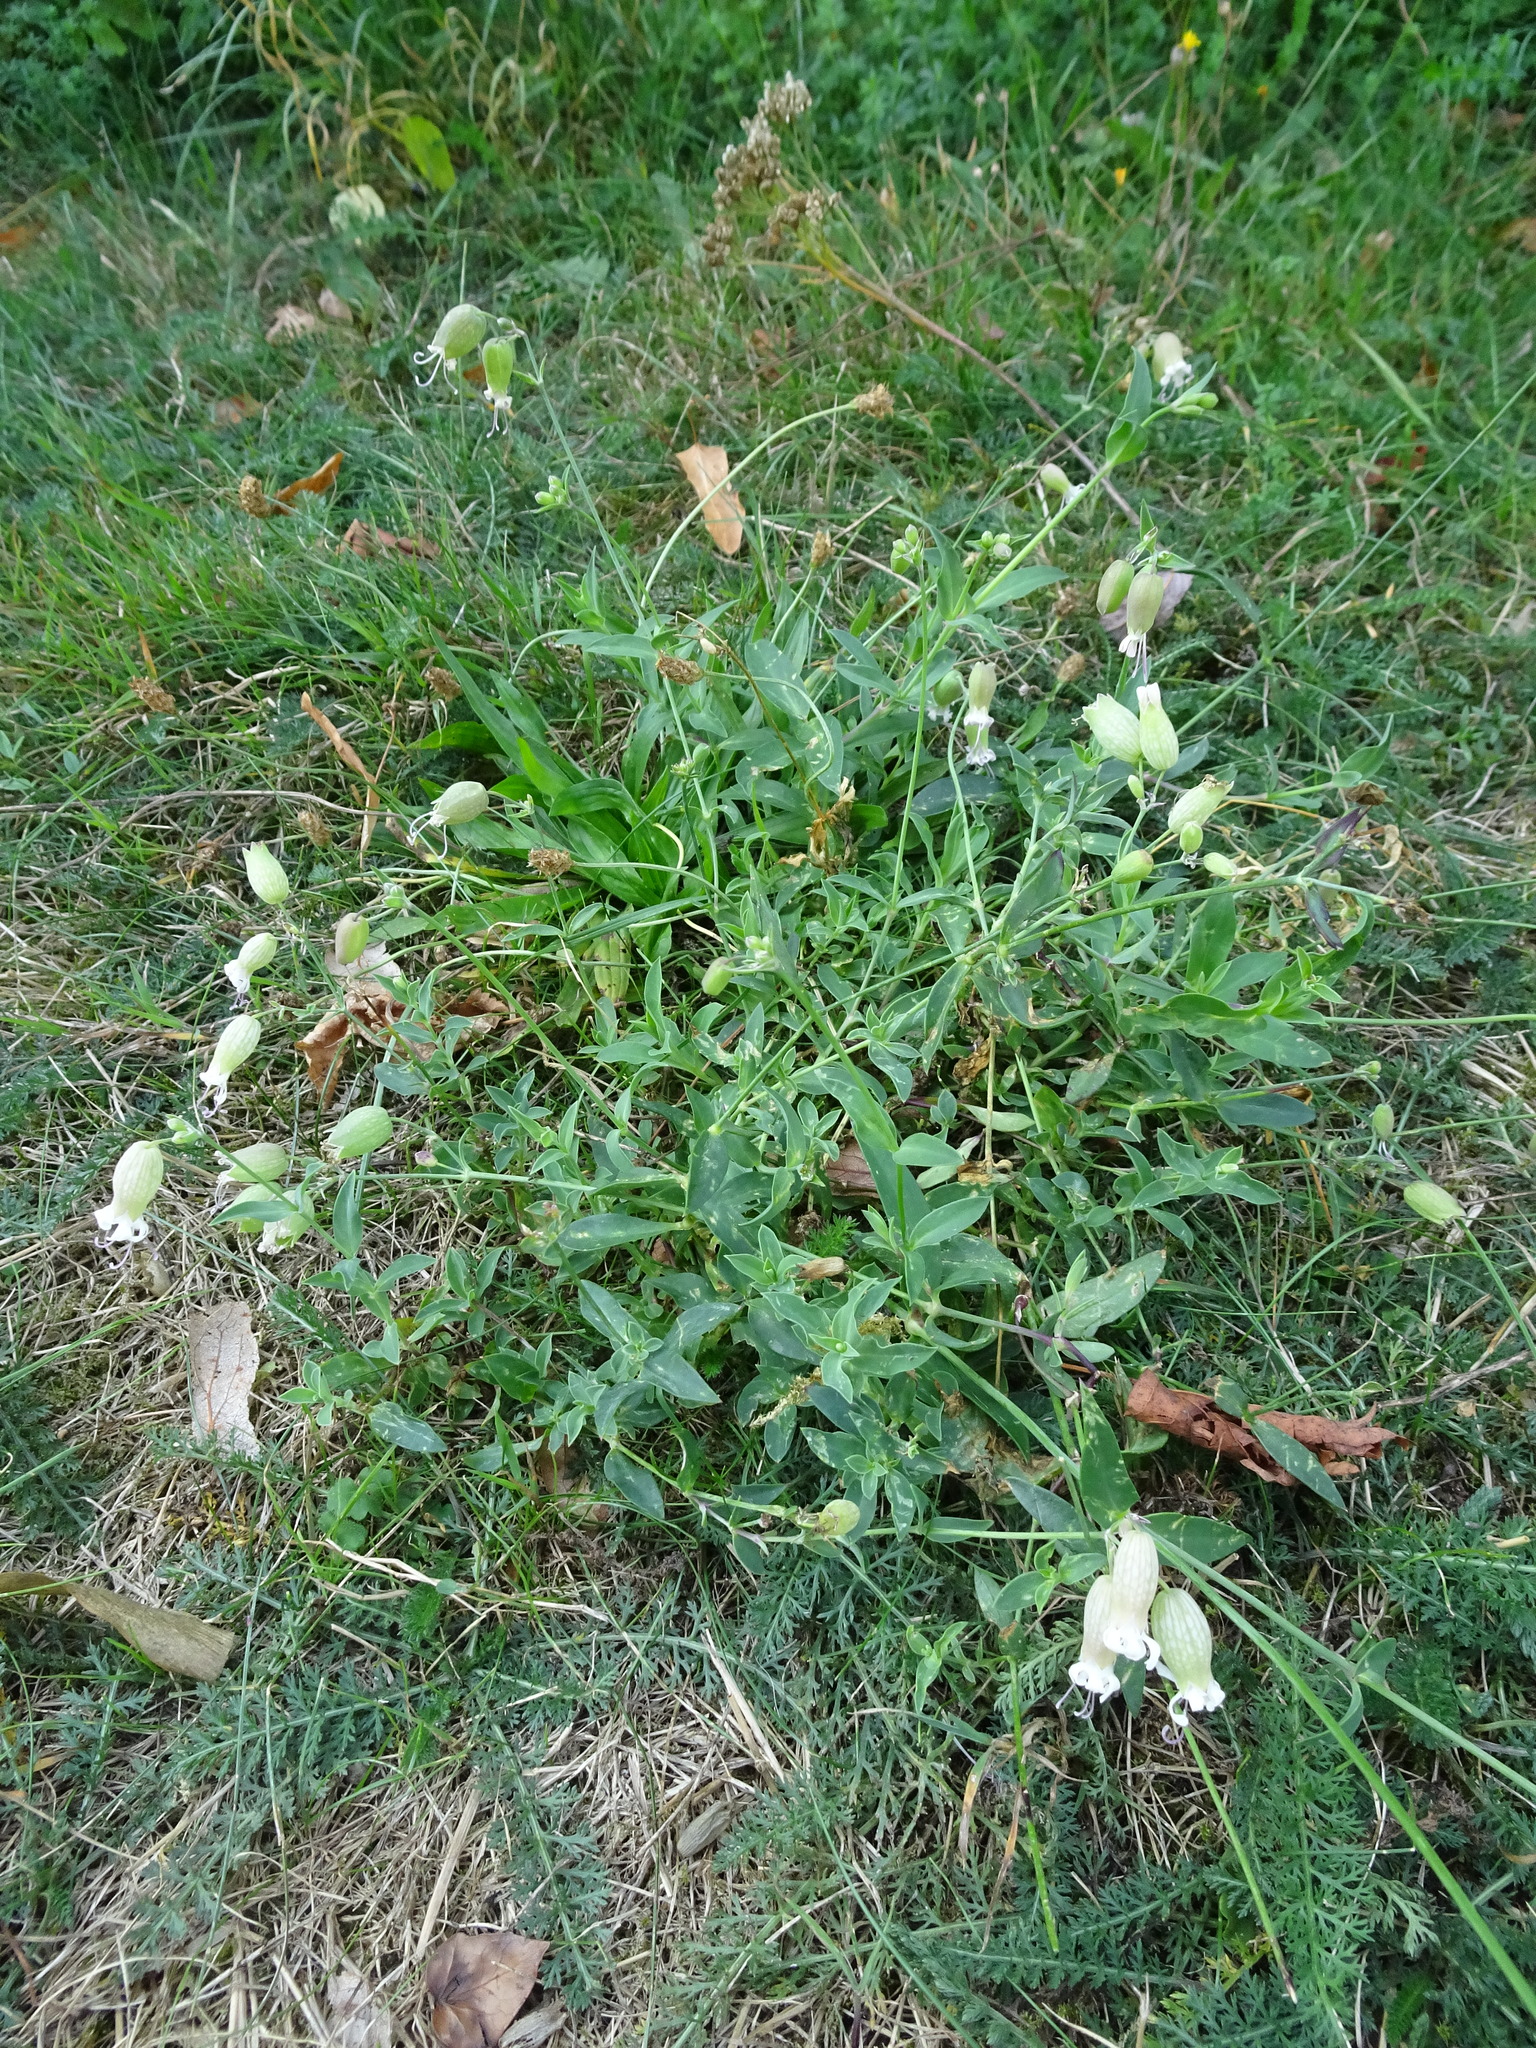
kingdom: Plantae
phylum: Tracheophyta
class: Magnoliopsida
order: Caryophyllales
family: Caryophyllaceae
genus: Silene
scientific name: Silene vulgaris
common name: Bladder campion
